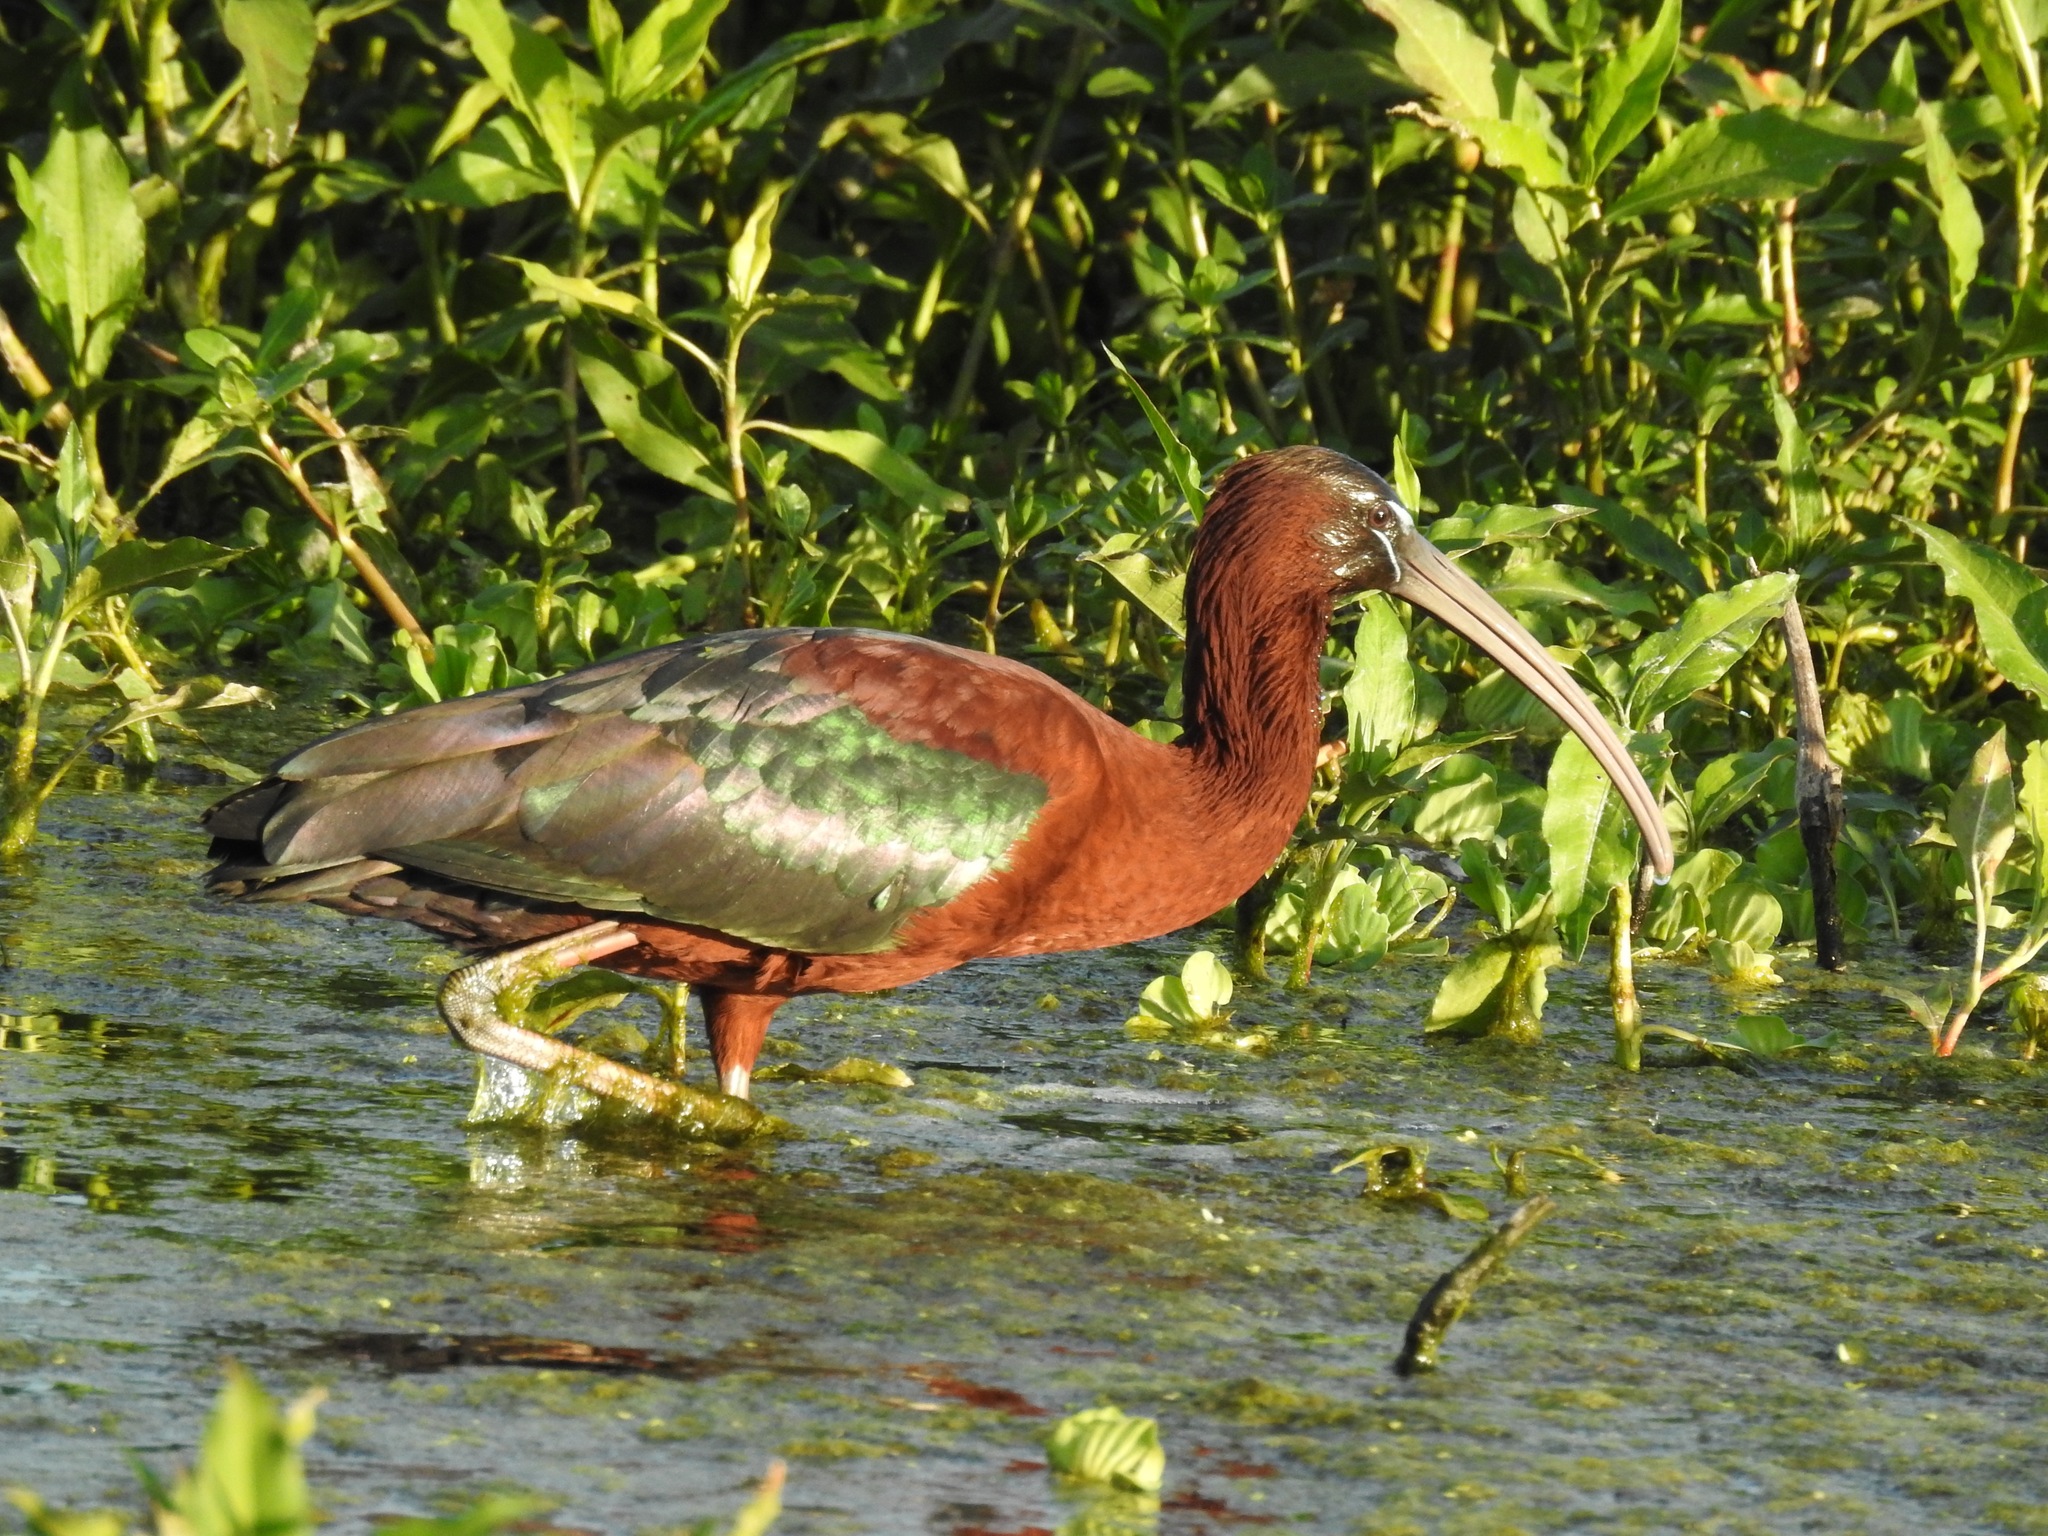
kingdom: Animalia
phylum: Chordata
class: Aves
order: Pelecaniformes
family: Threskiornithidae
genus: Plegadis
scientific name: Plegadis falcinellus
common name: Glossy ibis
